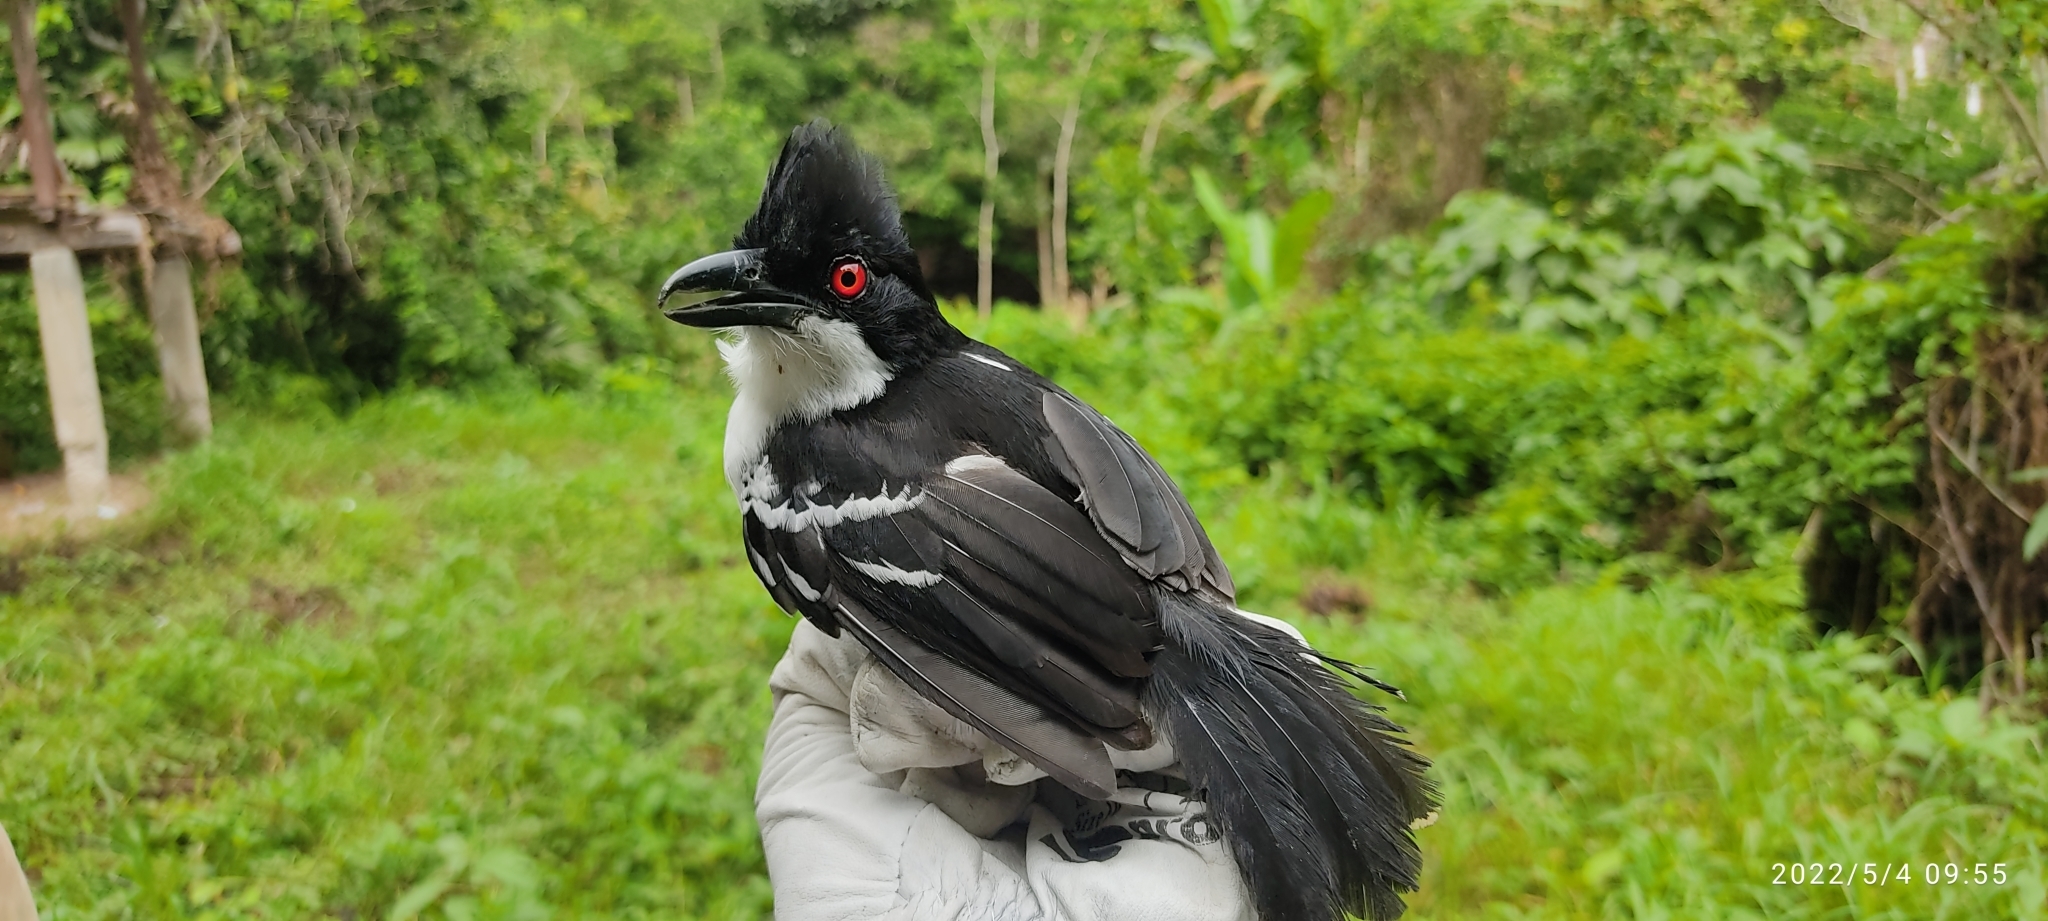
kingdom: Animalia
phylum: Chordata
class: Aves
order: Passeriformes
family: Thamnophilidae
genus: Taraba
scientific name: Taraba major
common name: Great antshrike
